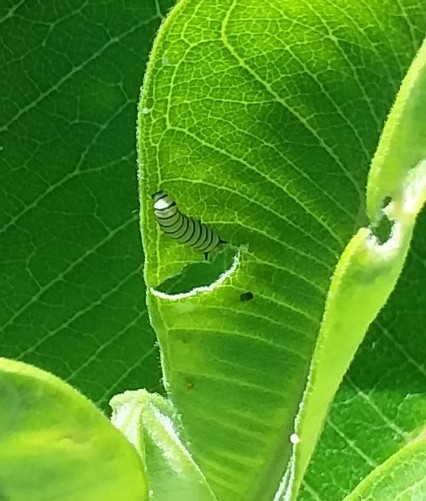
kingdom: Animalia
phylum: Arthropoda
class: Insecta
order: Lepidoptera
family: Nymphalidae
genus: Danaus
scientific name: Danaus plexippus
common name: Monarch
